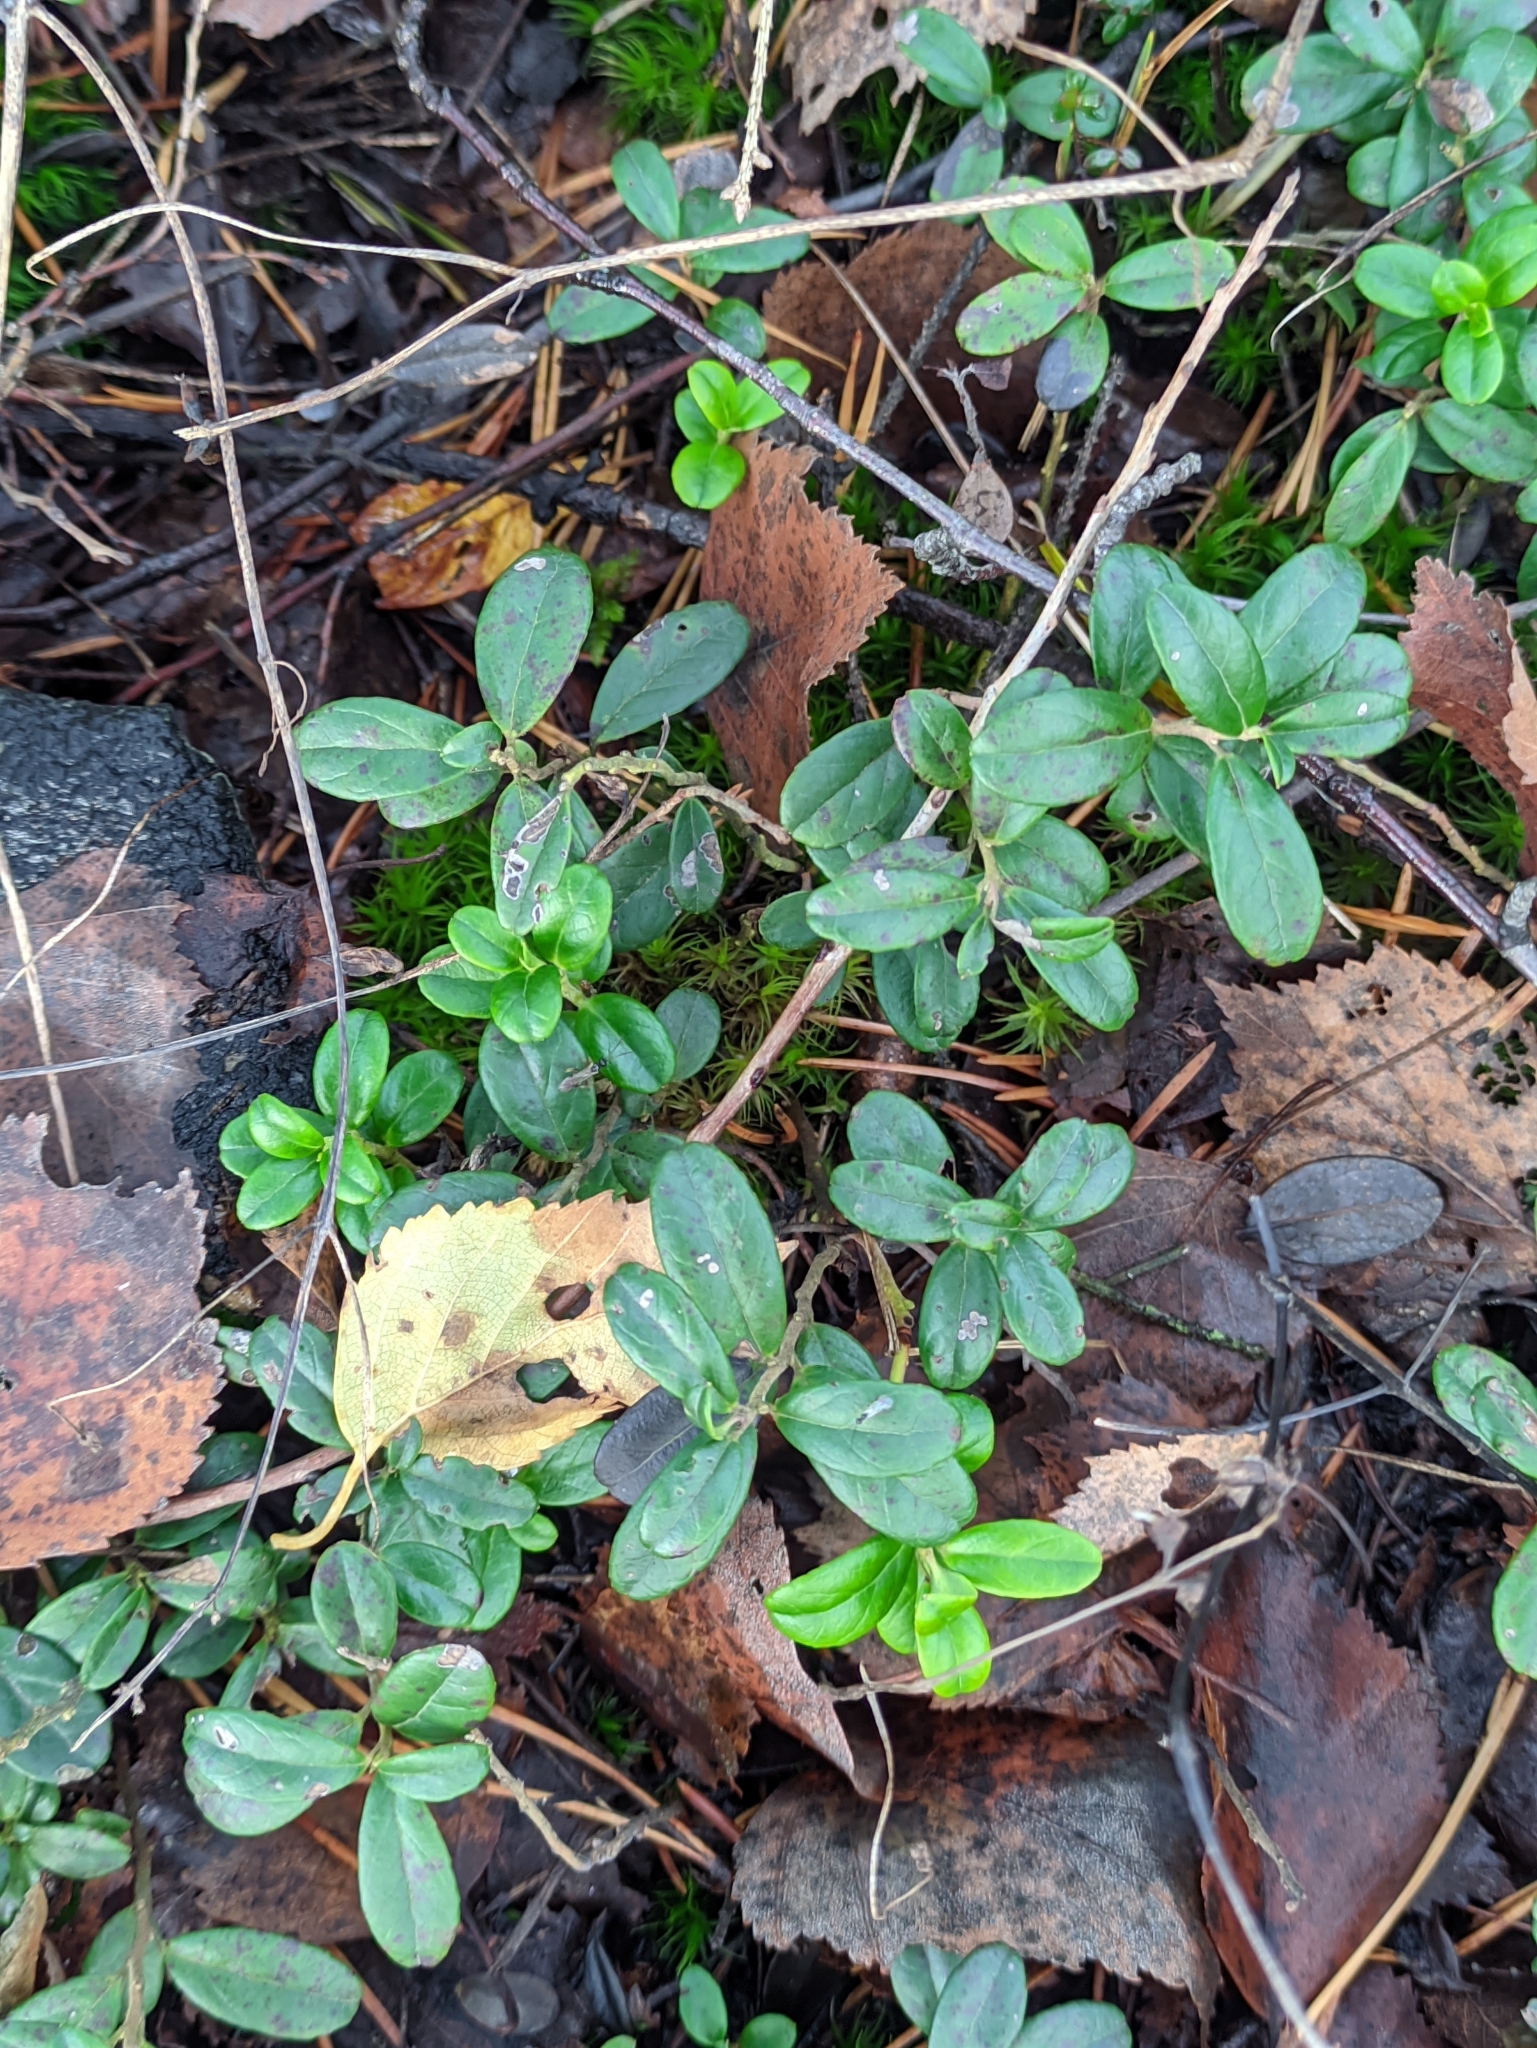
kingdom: Plantae
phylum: Tracheophyta
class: Magnoliopsida
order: Ericales
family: Ericaceae
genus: Vaccinium
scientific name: Vaccinium vitis-idaea
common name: Cowberry
